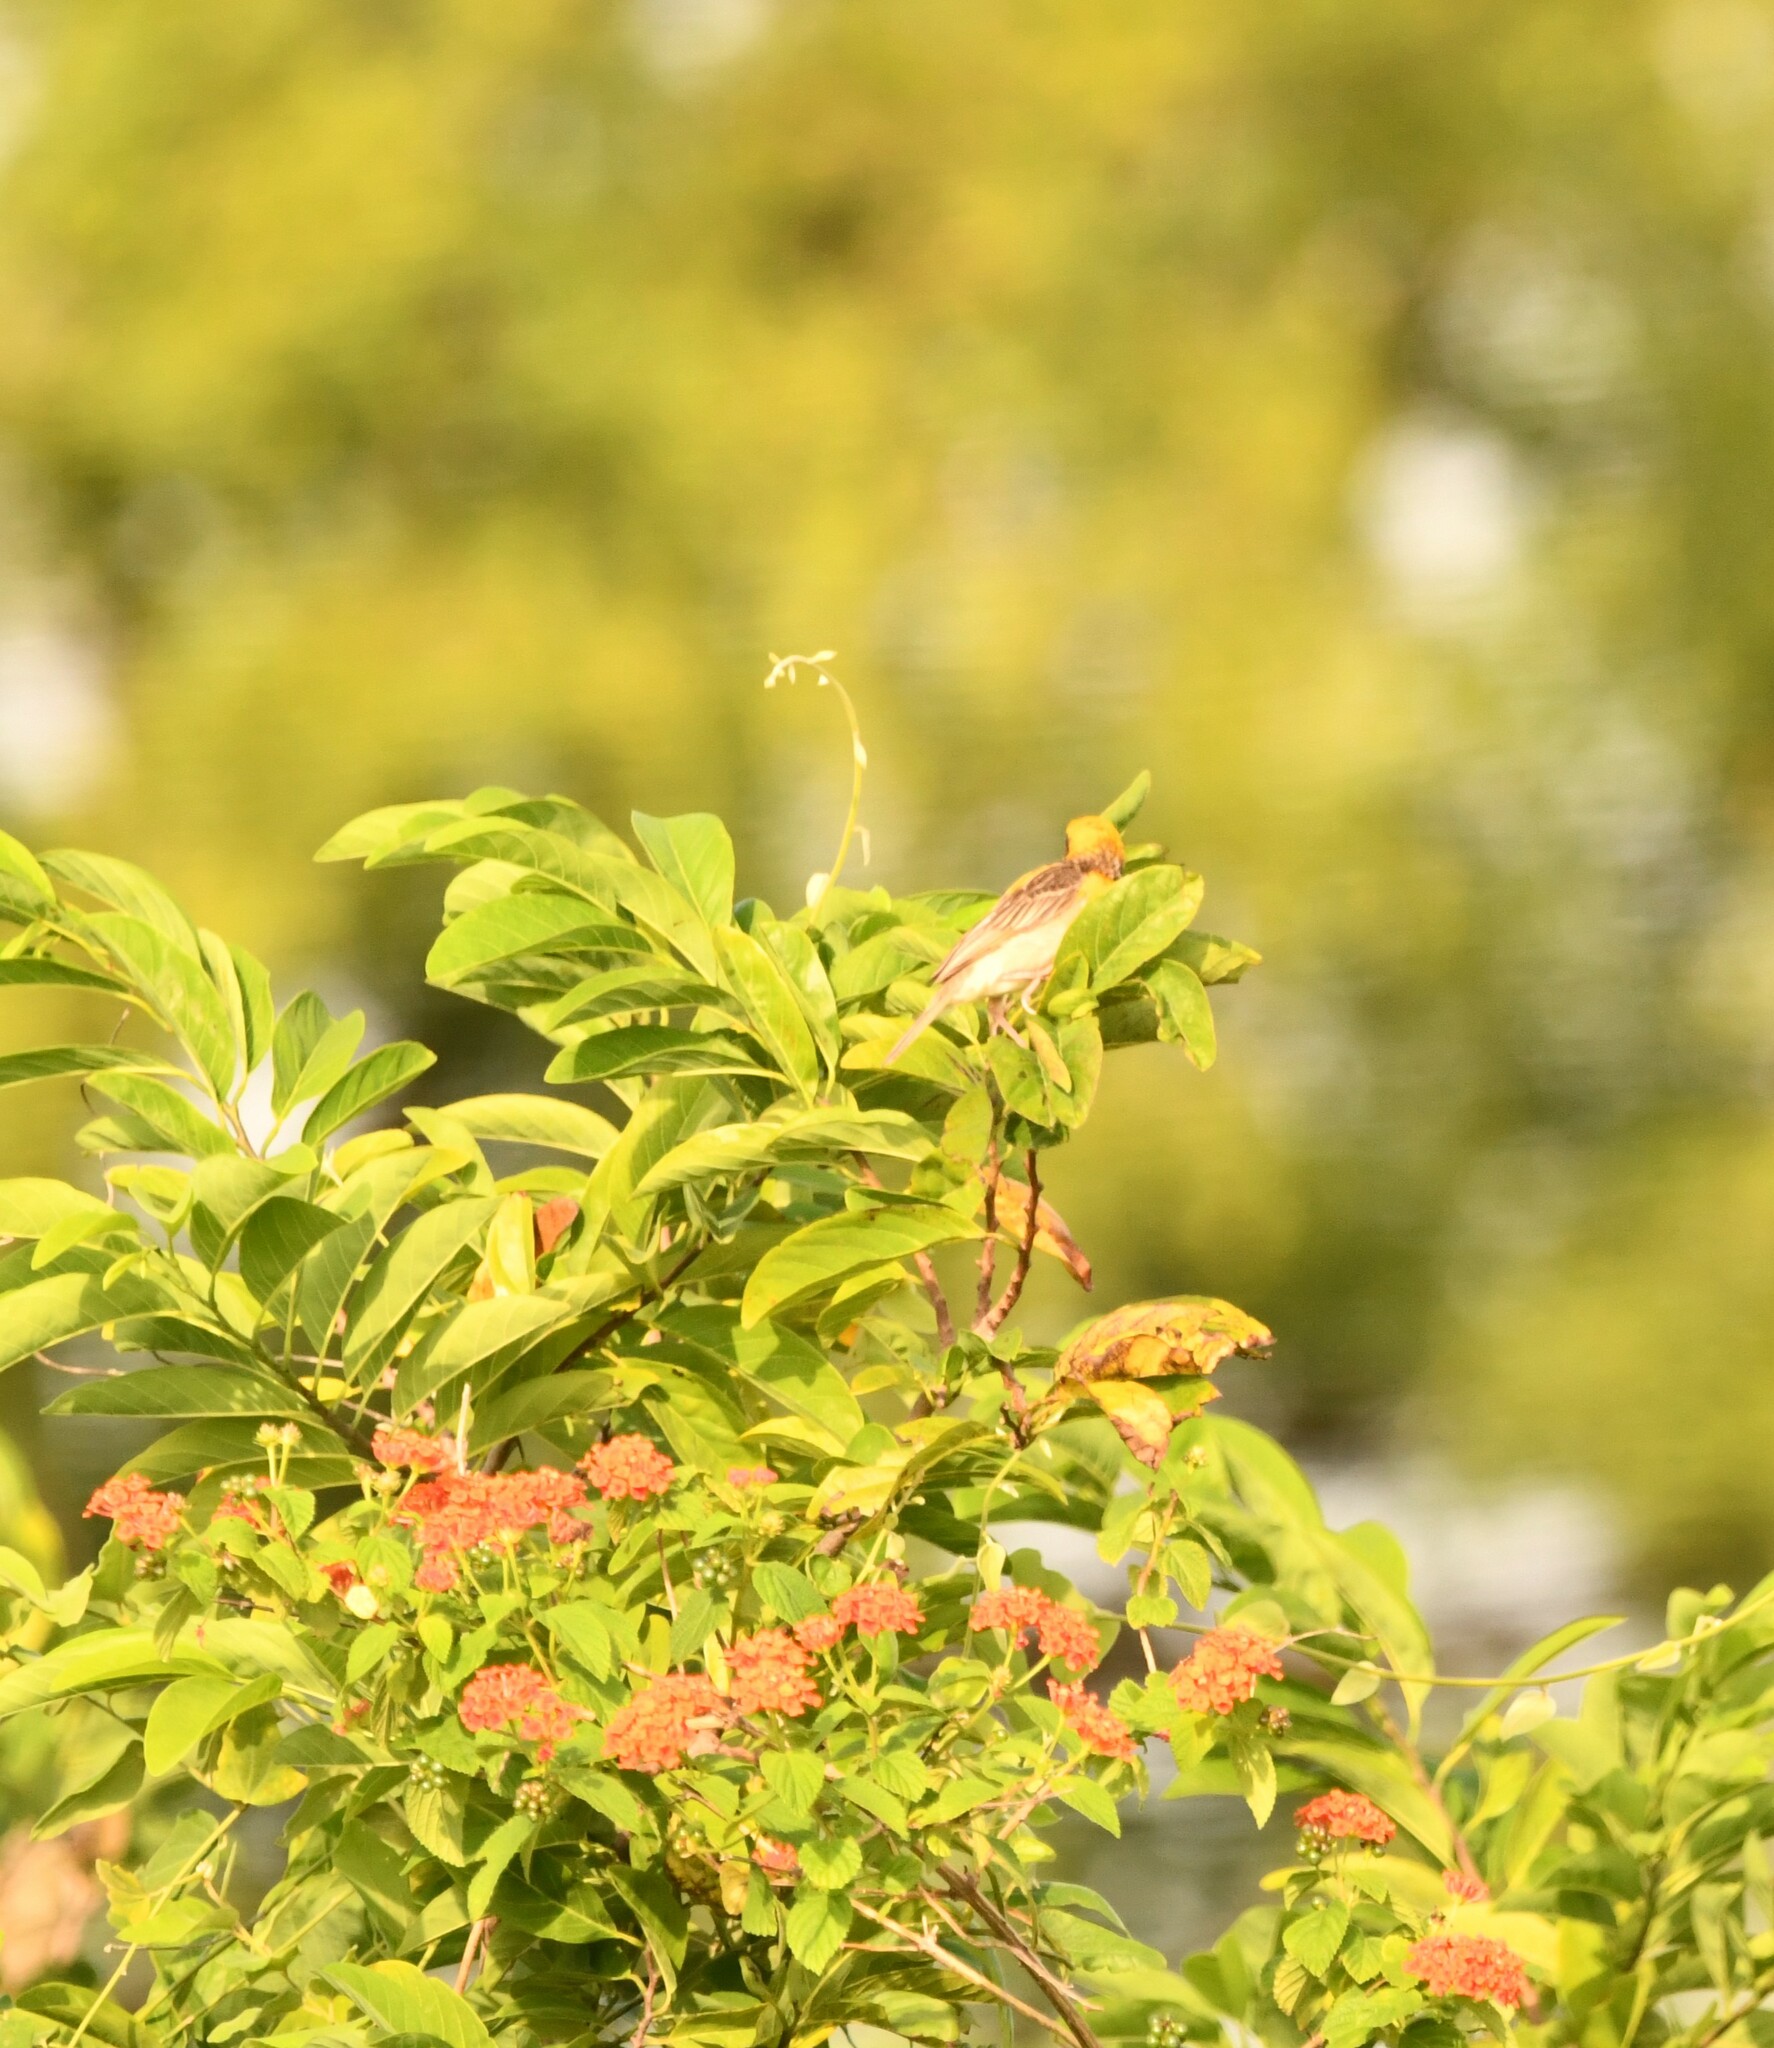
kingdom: Animalia
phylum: Chordata
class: Aves
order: Passeriformes
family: Ploceidae
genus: Ploceus
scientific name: Ploceus philippinus
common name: Baya weaver
